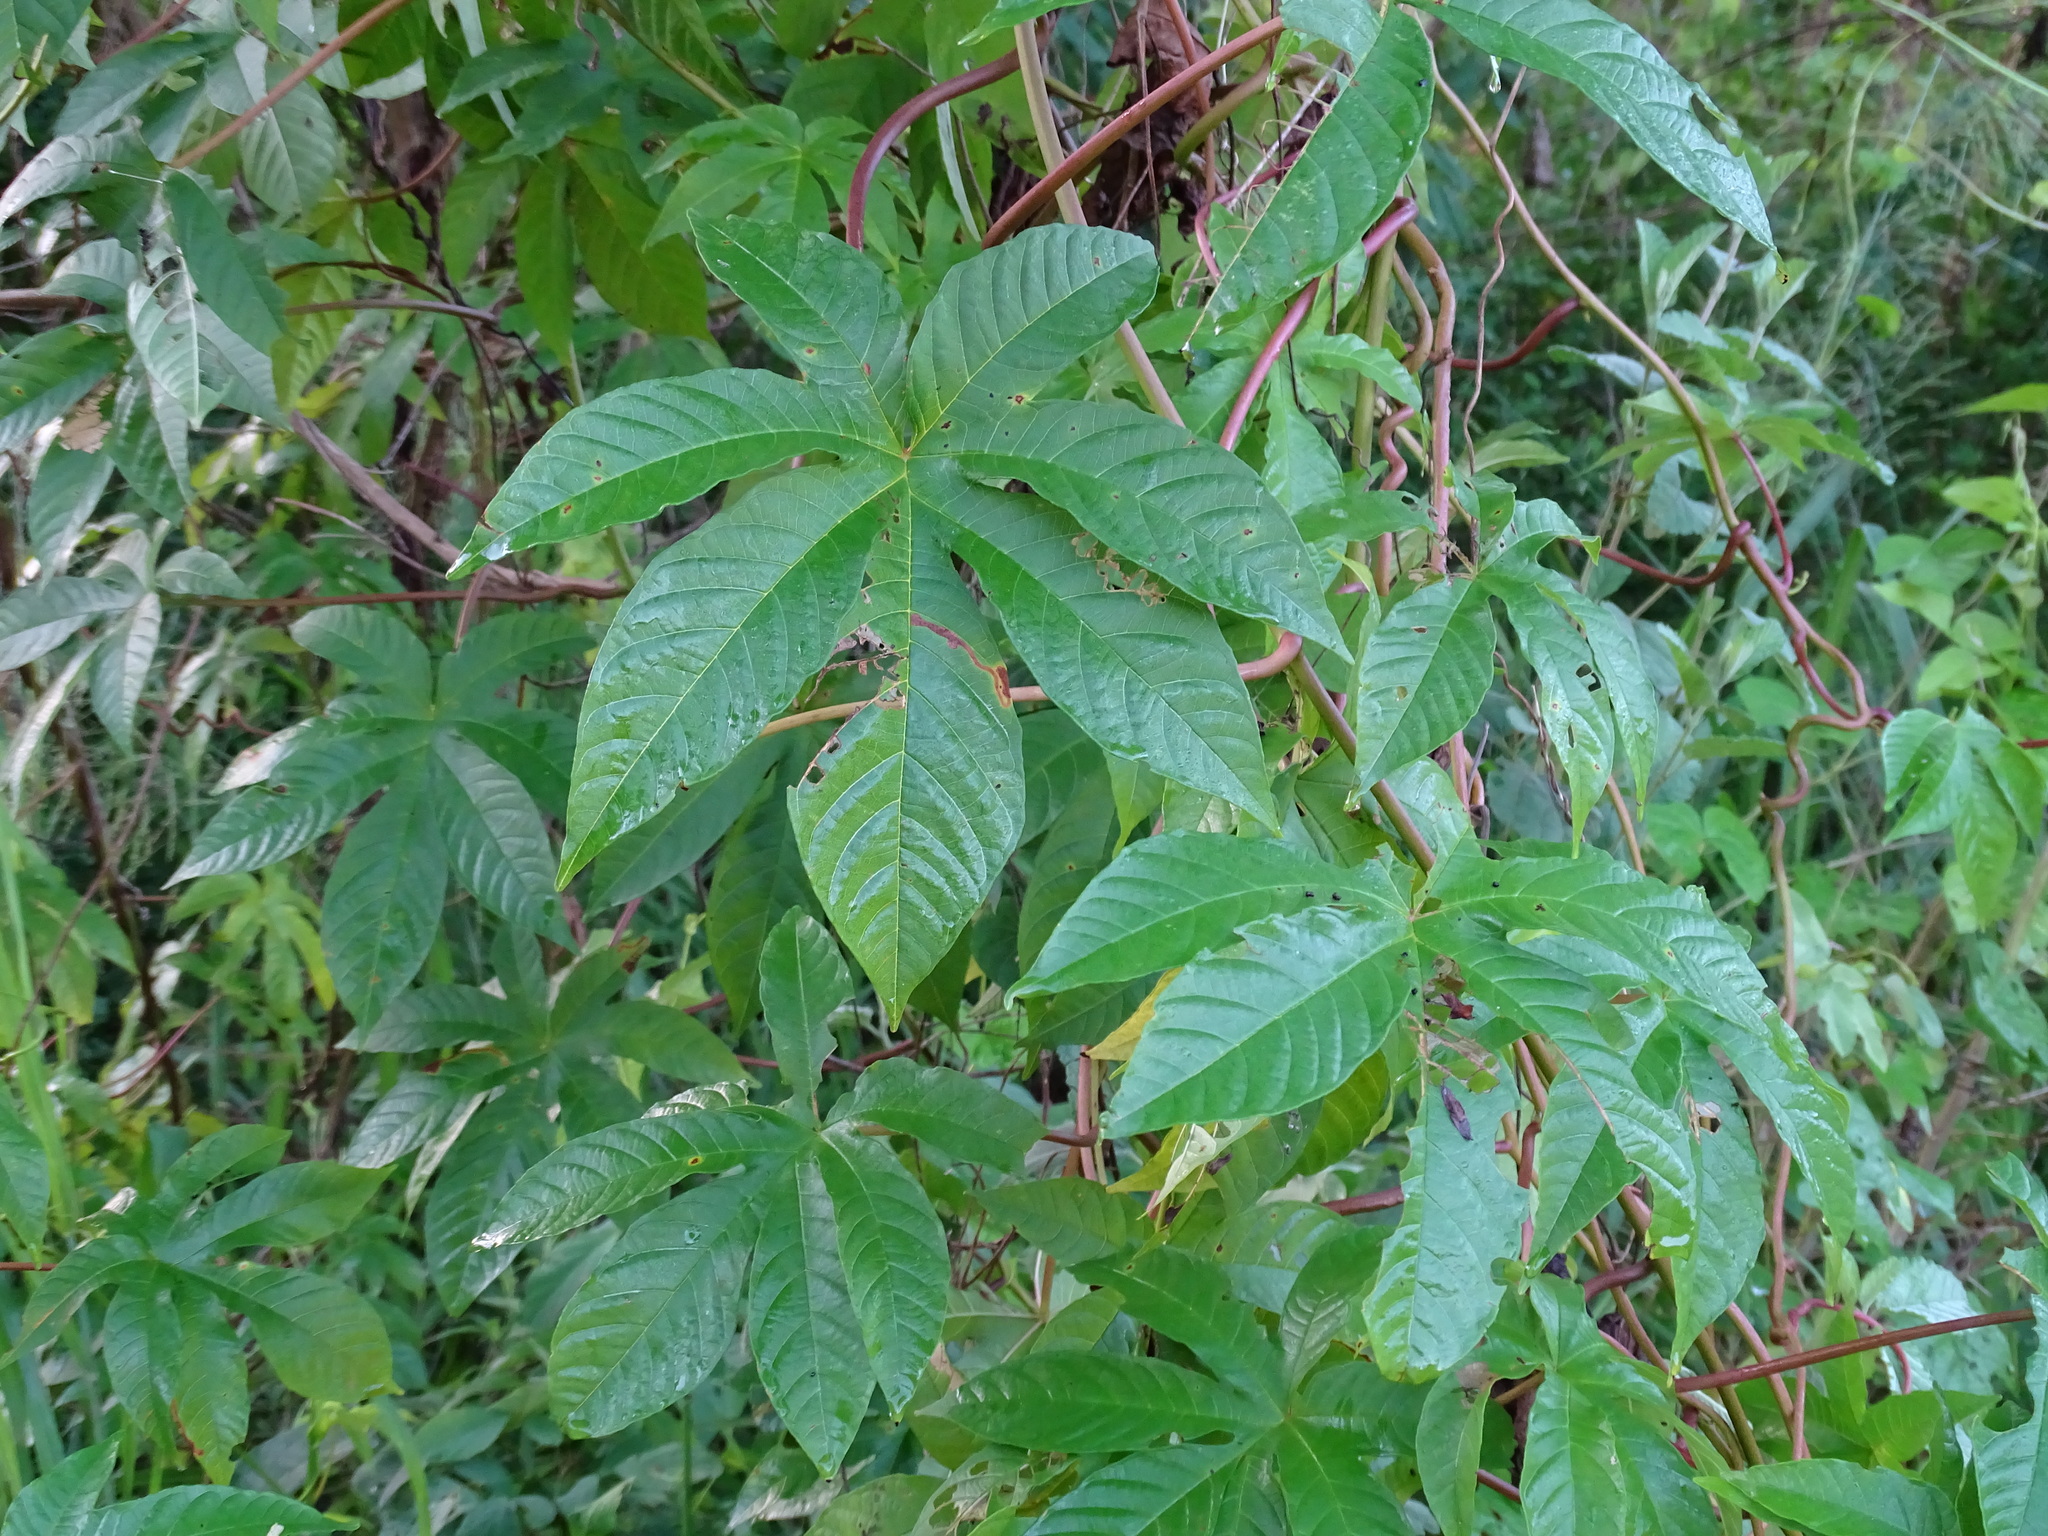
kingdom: Plantae
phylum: Tracheophyta
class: Magnoliopsida
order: Solanales
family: Convolvulaceae
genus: Distimake
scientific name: Distimake tuberosus
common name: Spanish arborvine
